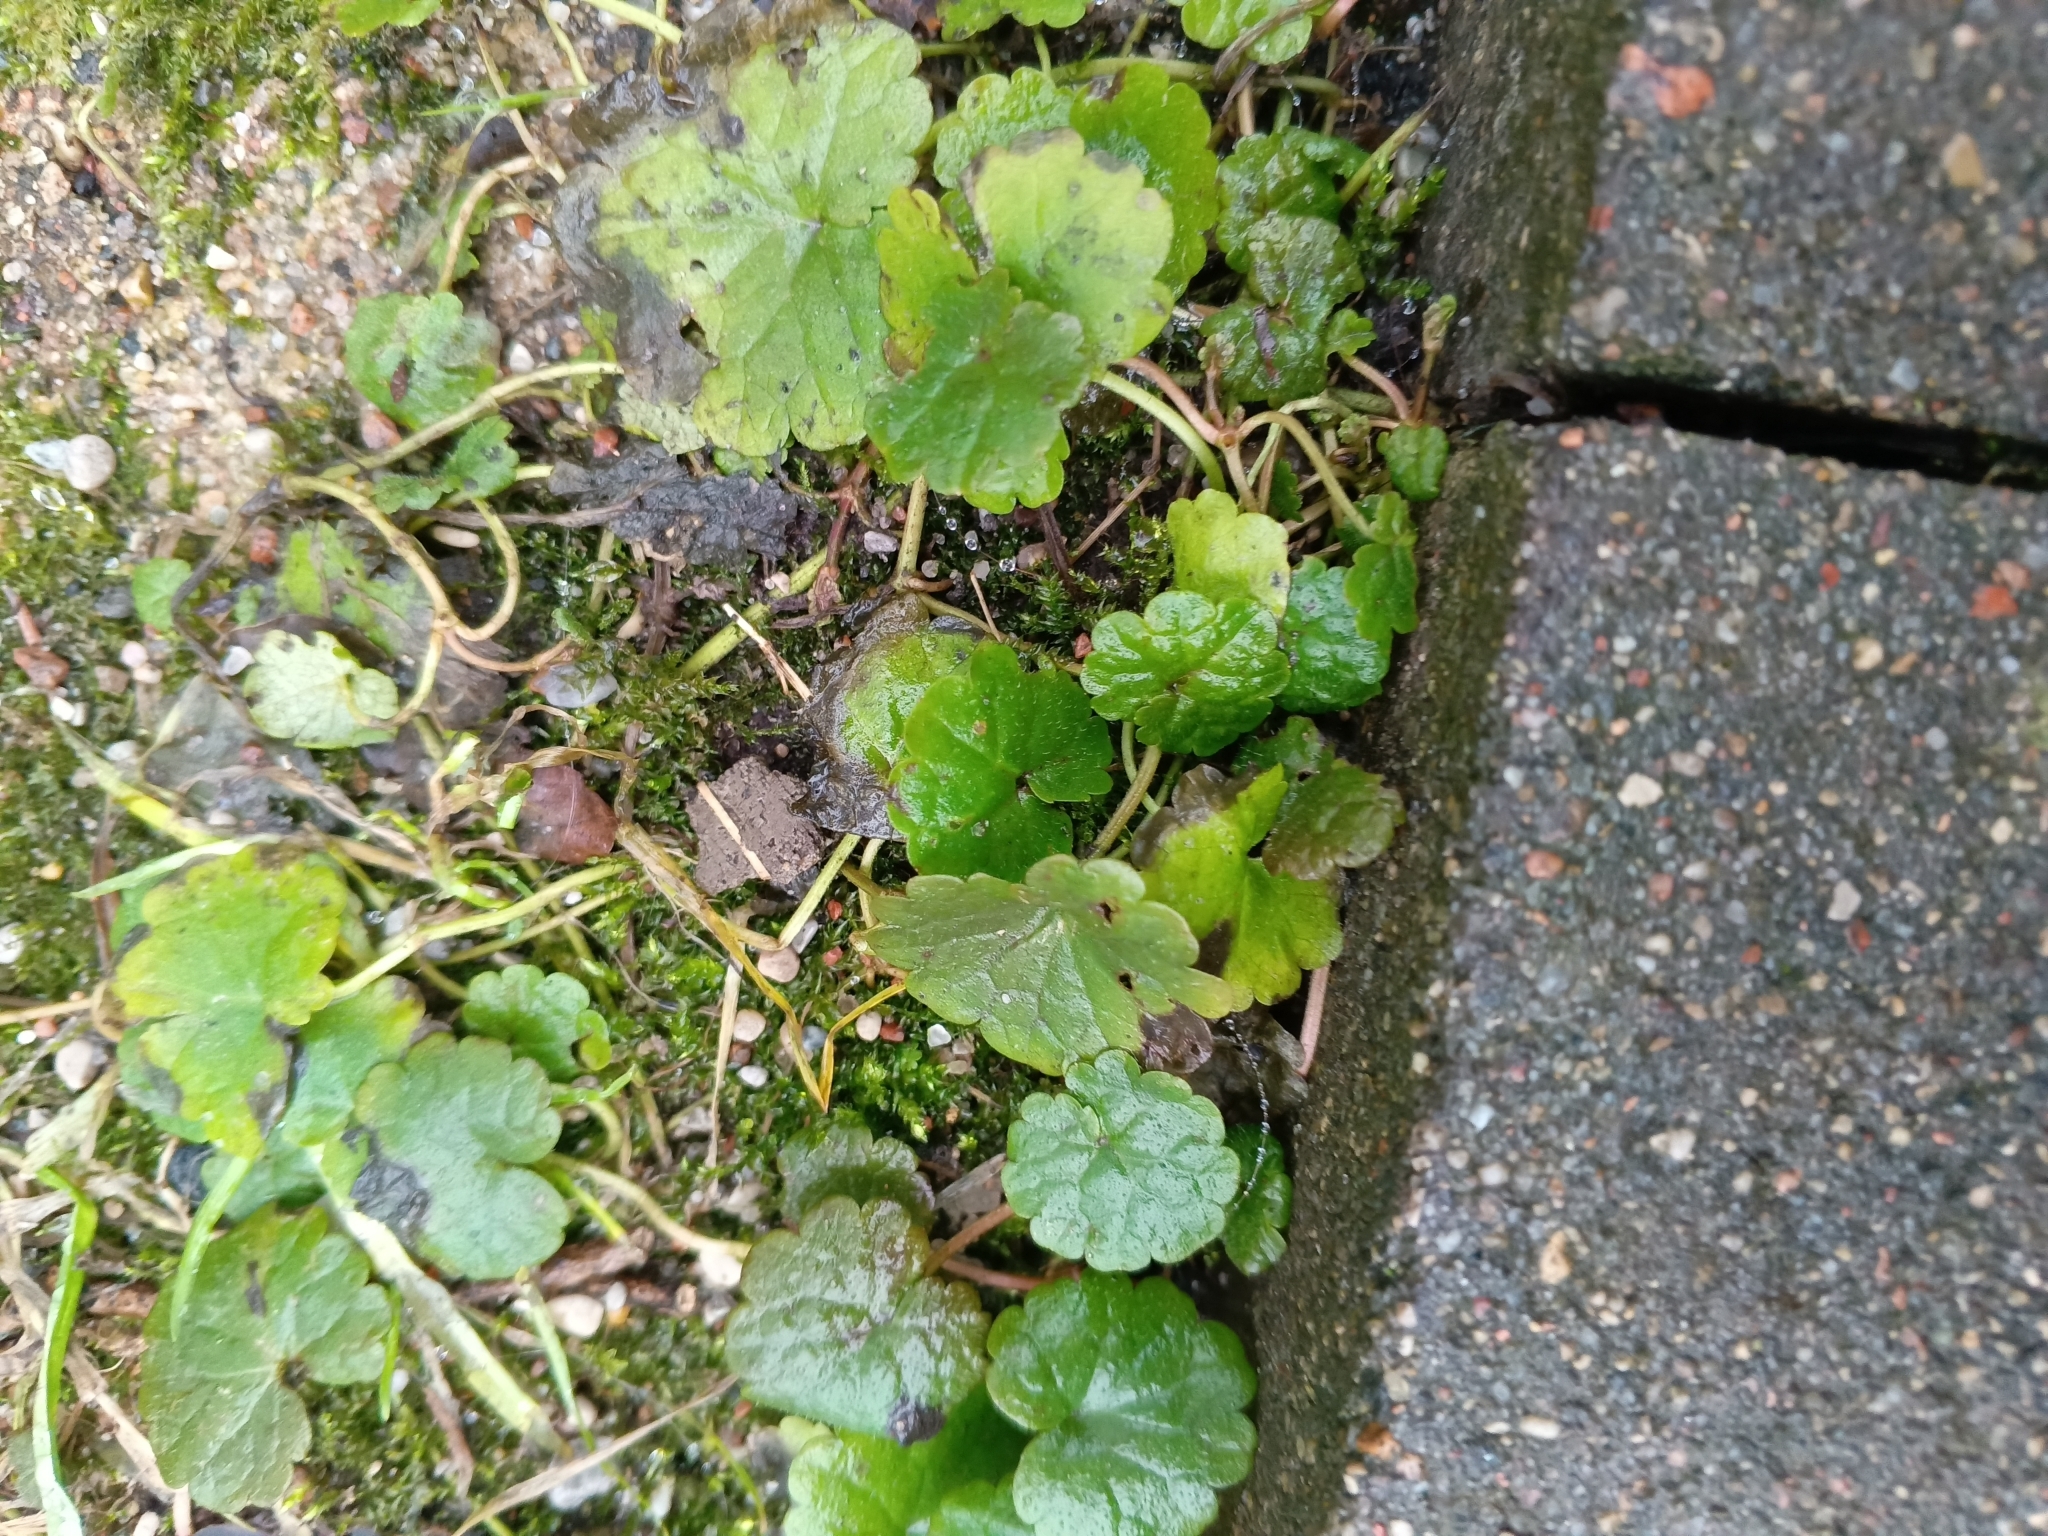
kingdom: Plantae
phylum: Tracheophyta
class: Magnoliopsida
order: Lamiales
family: Lamiaceae
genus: Glechoma
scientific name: Glechoma hederacea
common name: Ground ivy
